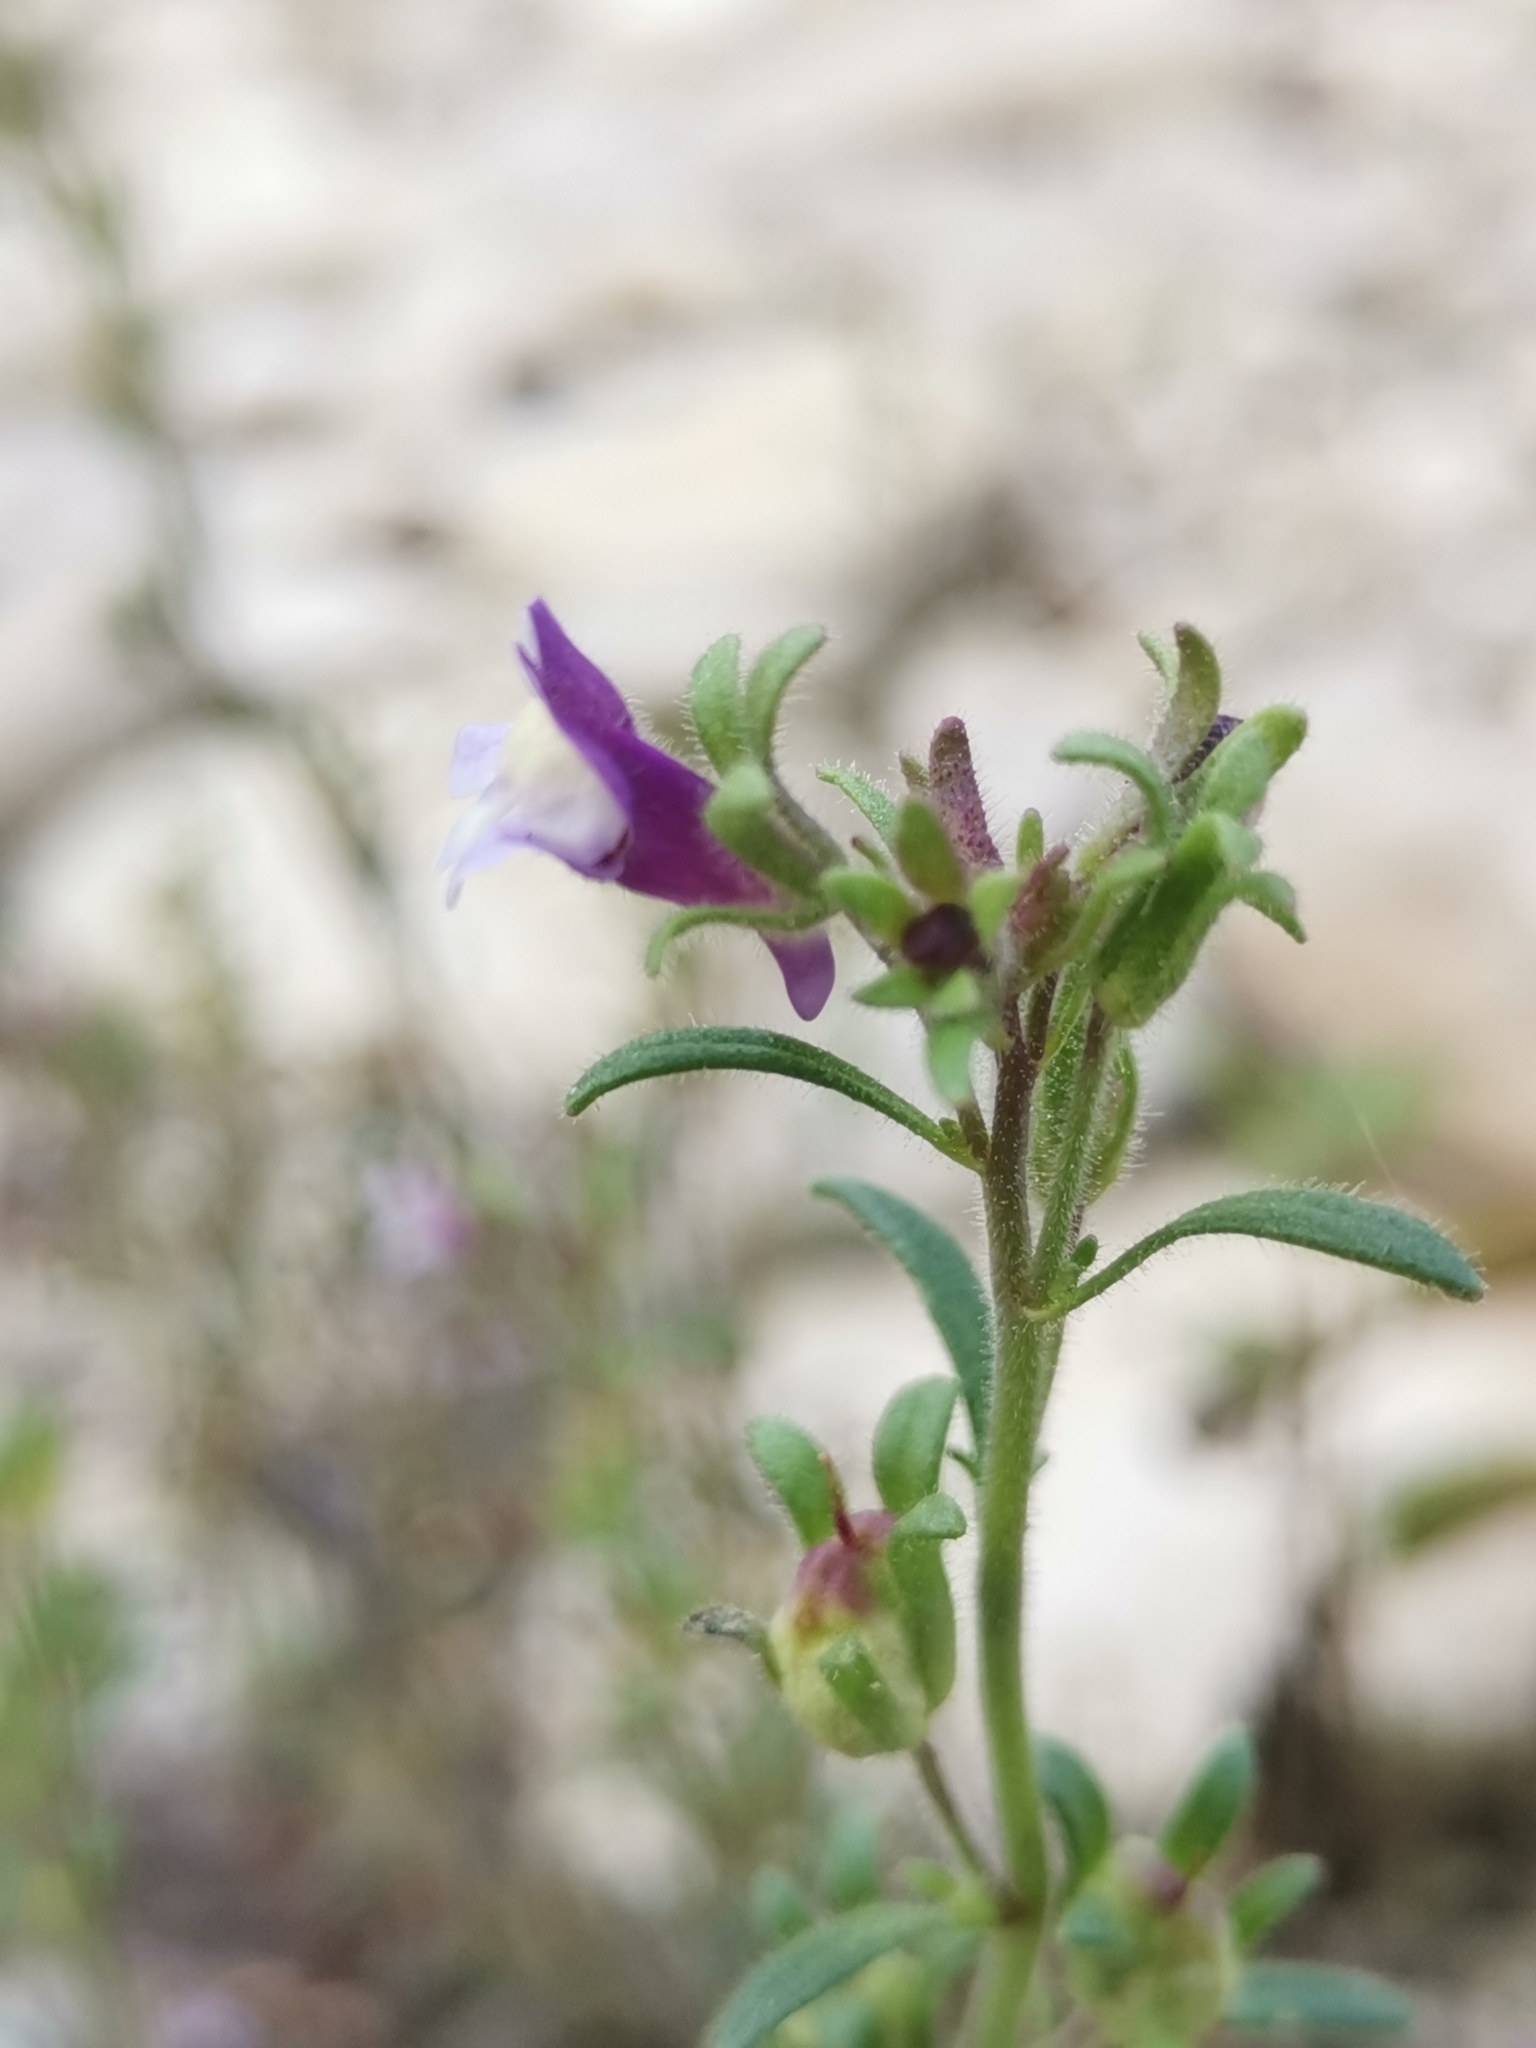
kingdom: Plantae
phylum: Tracheophyta
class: Magnoliopsida
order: Lamiales
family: Plantaginaceae
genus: Chaenorhinum
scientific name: Chaenorhinum litorale
